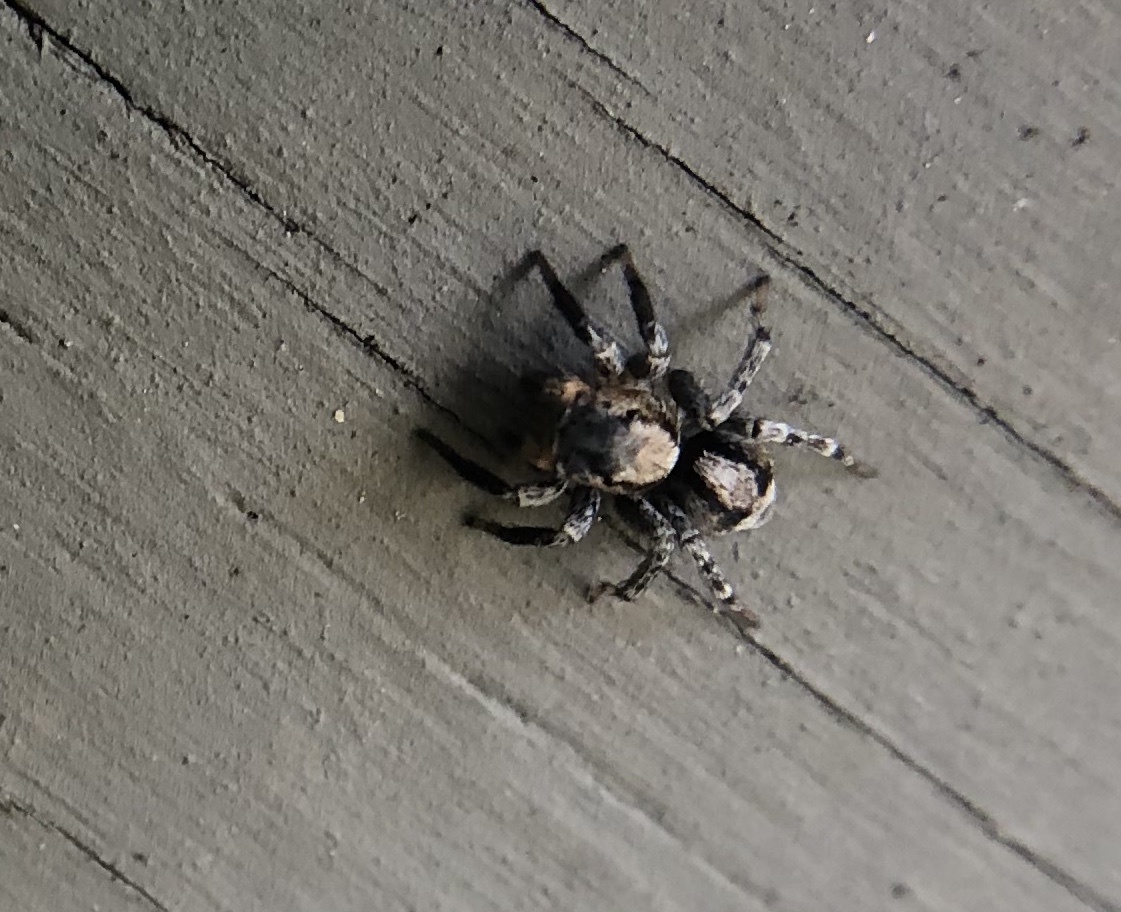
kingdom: Animalia
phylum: Arthropoda
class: Arachnida
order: Araneae
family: Salticidae
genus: Naphrys
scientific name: Naphrys pulex
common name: Flea jumping spider
